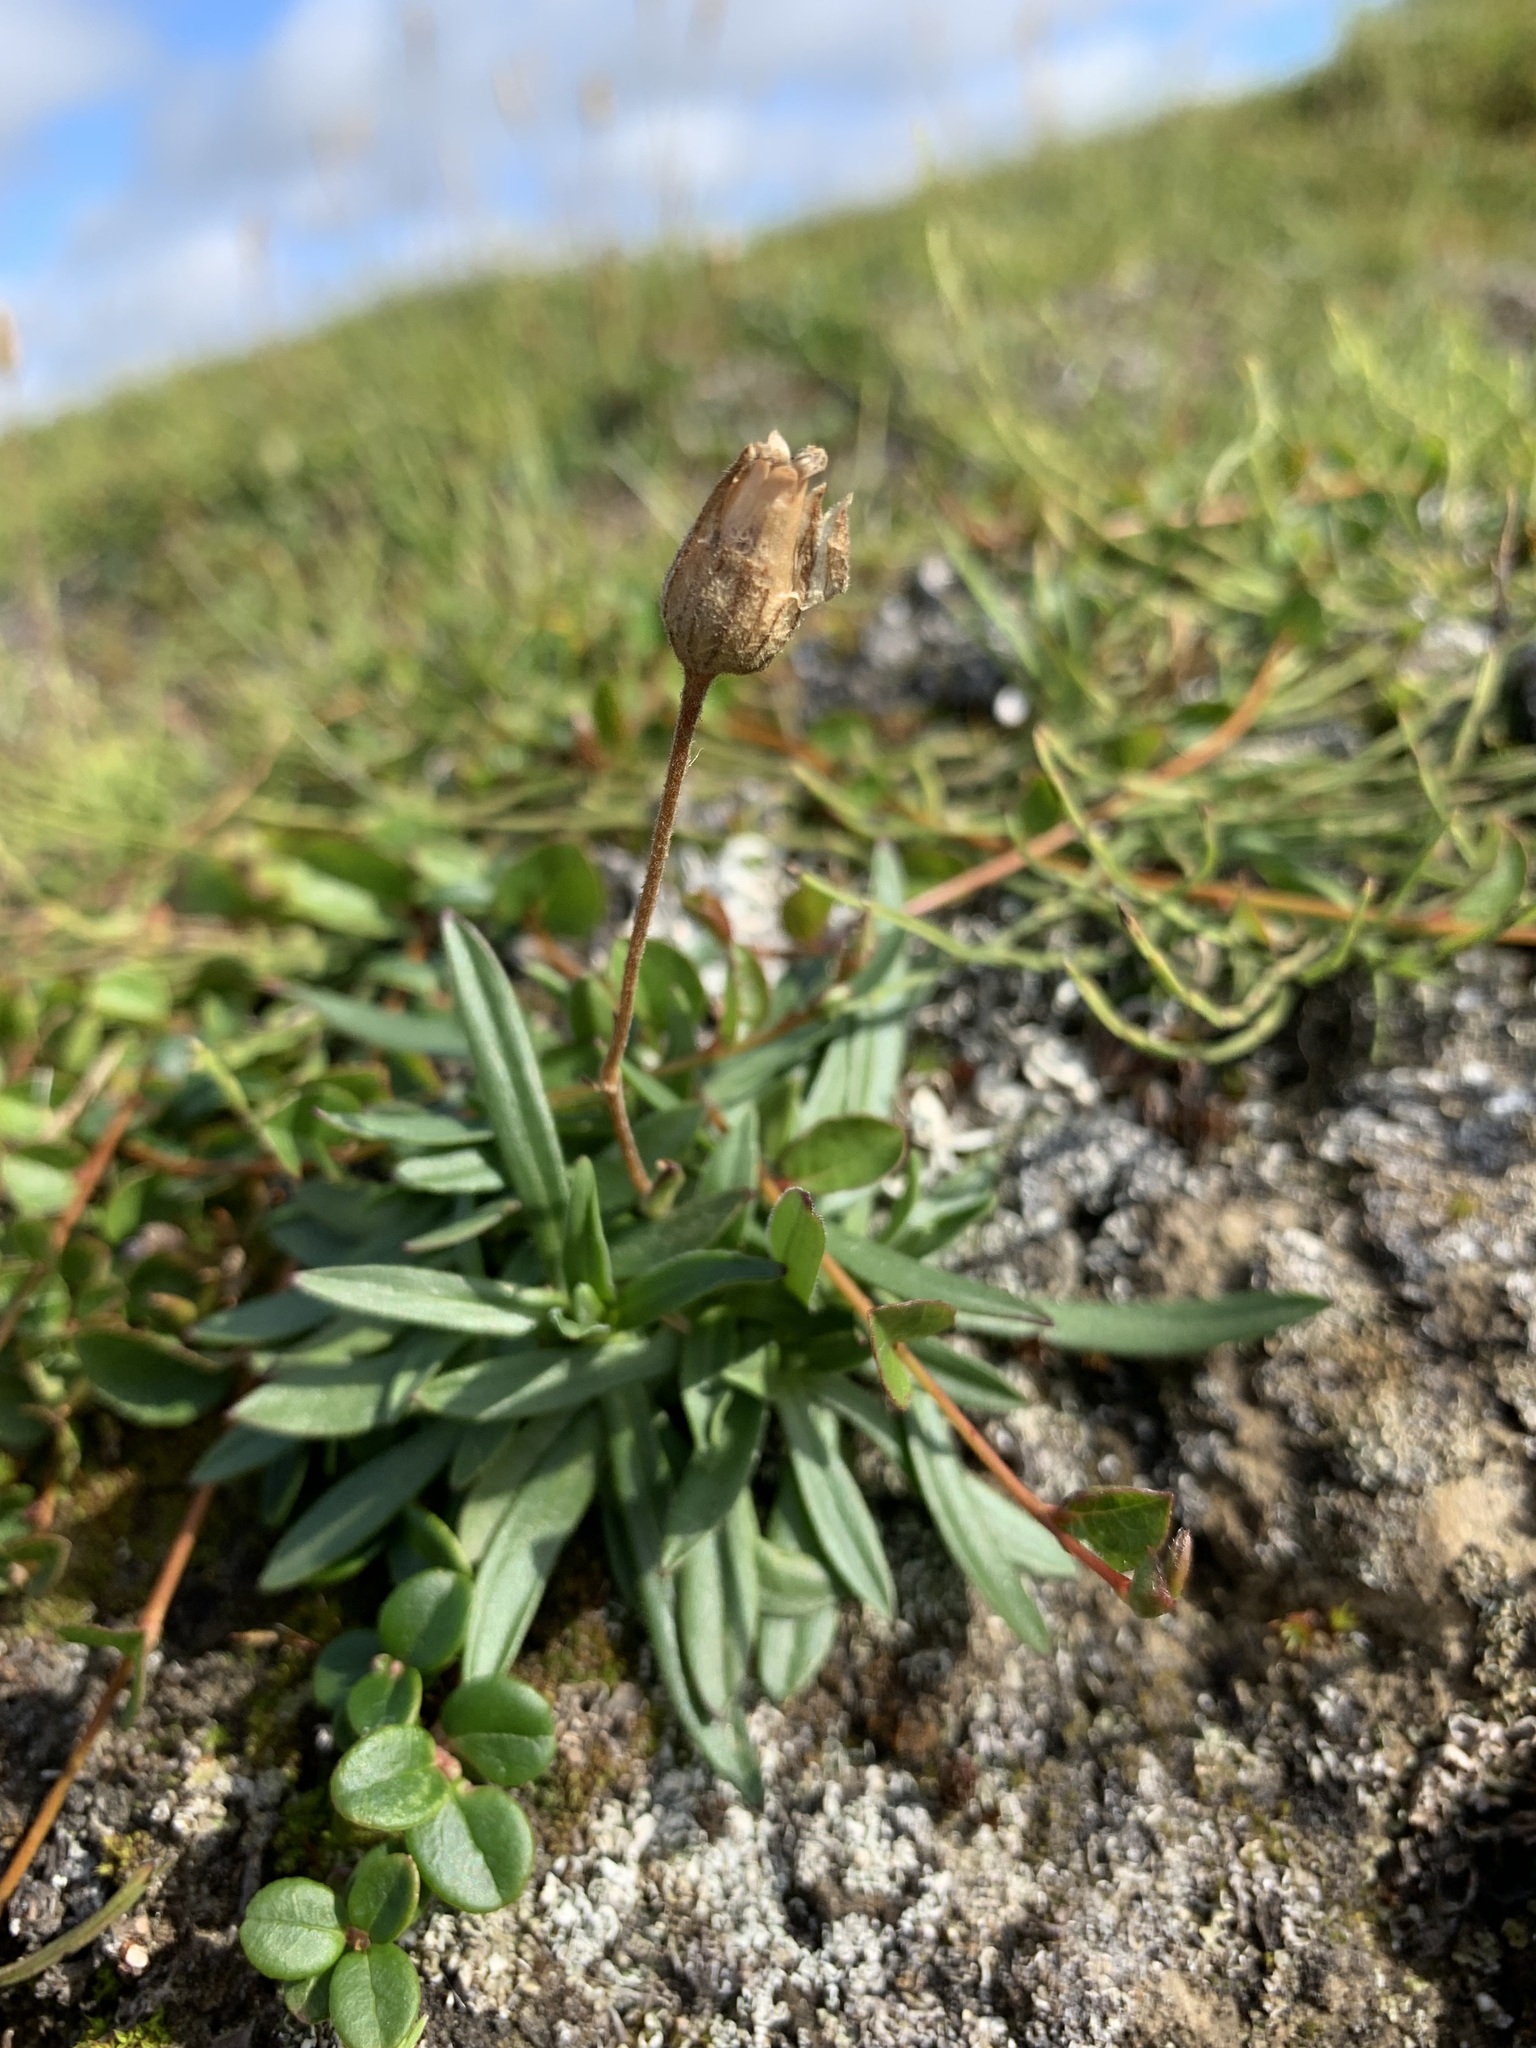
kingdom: Plantae
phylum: Tracheophyta
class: Magnoliopsida
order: Caryophyllales
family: Caryophyllaceae
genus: Silene
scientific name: Silene involucrata
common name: Greater arctic campion
